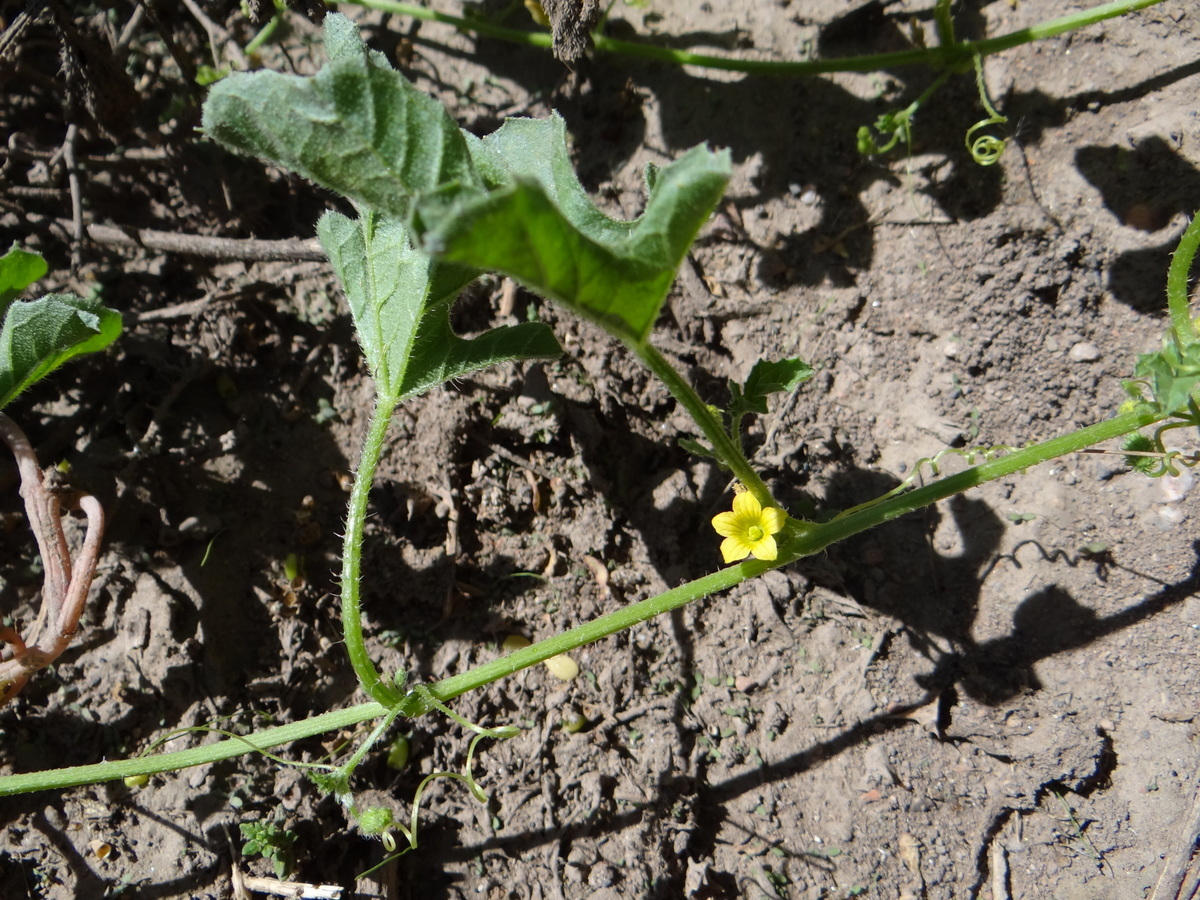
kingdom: Plantae
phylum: Tracheophyta
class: Magnoliopsida
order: Cucurbitales
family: Cucurbitaceae
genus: Cucumis
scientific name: Cucumis myriocarpus
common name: Gooseberry cucumber
